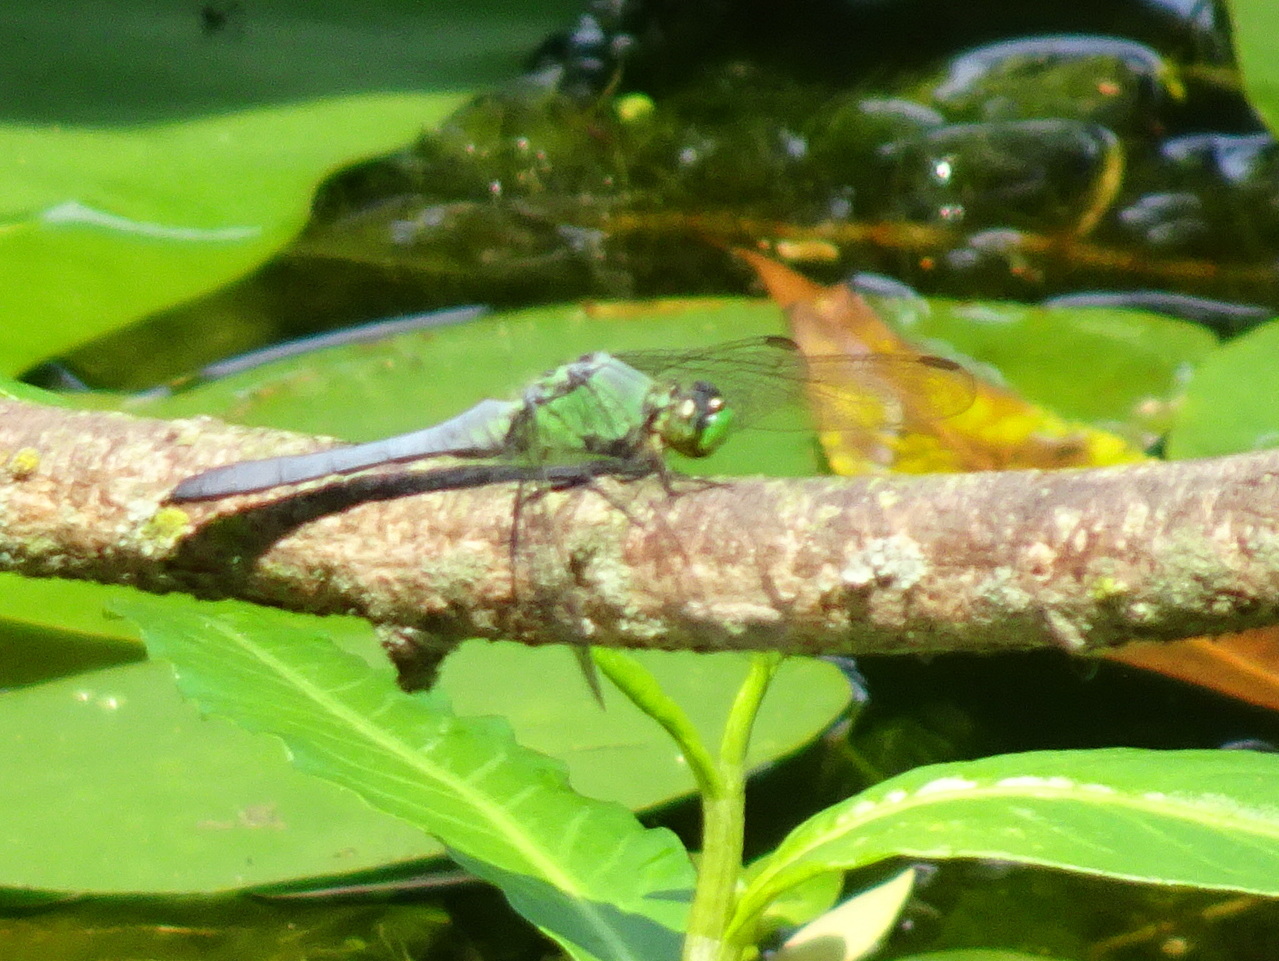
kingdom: Animalia
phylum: Arthropoda
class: Insecta
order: Odonata
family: Libellulidae
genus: Erythemis
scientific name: Erythemis simplicicollis
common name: Eastern pondhawk
